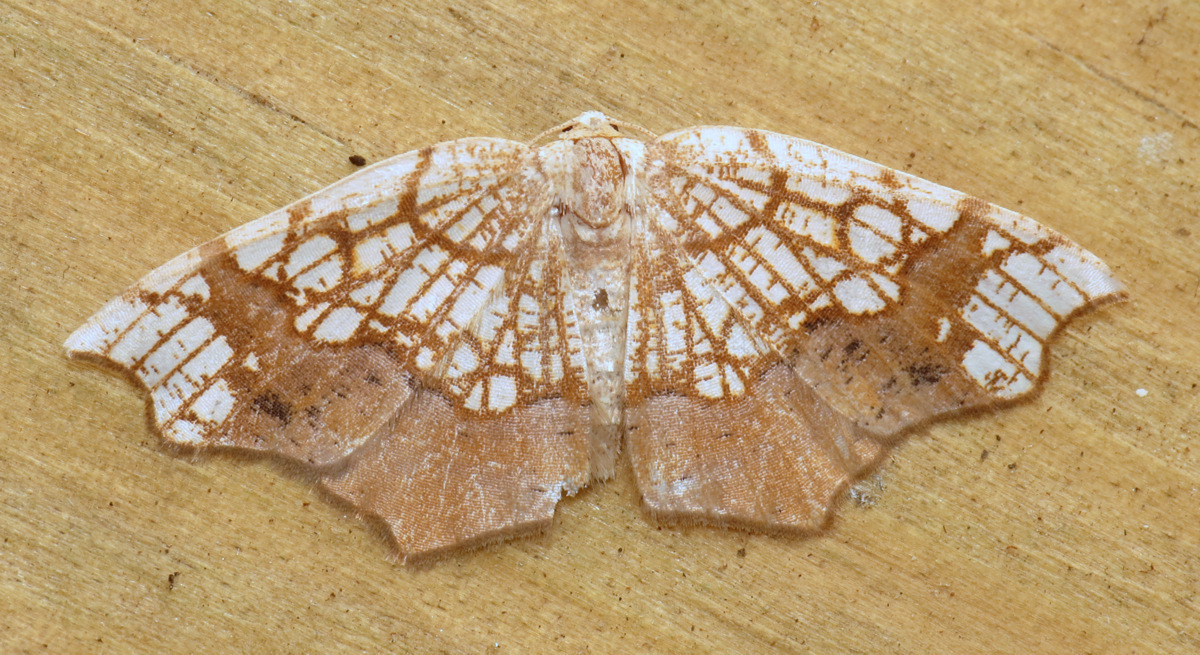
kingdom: Animalia
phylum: Arthropoda
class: Insecta
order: Lepidoptera
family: Geometridae
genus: Nematocampa
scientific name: Nematocampa resistaria
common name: Horned spanworm moth
